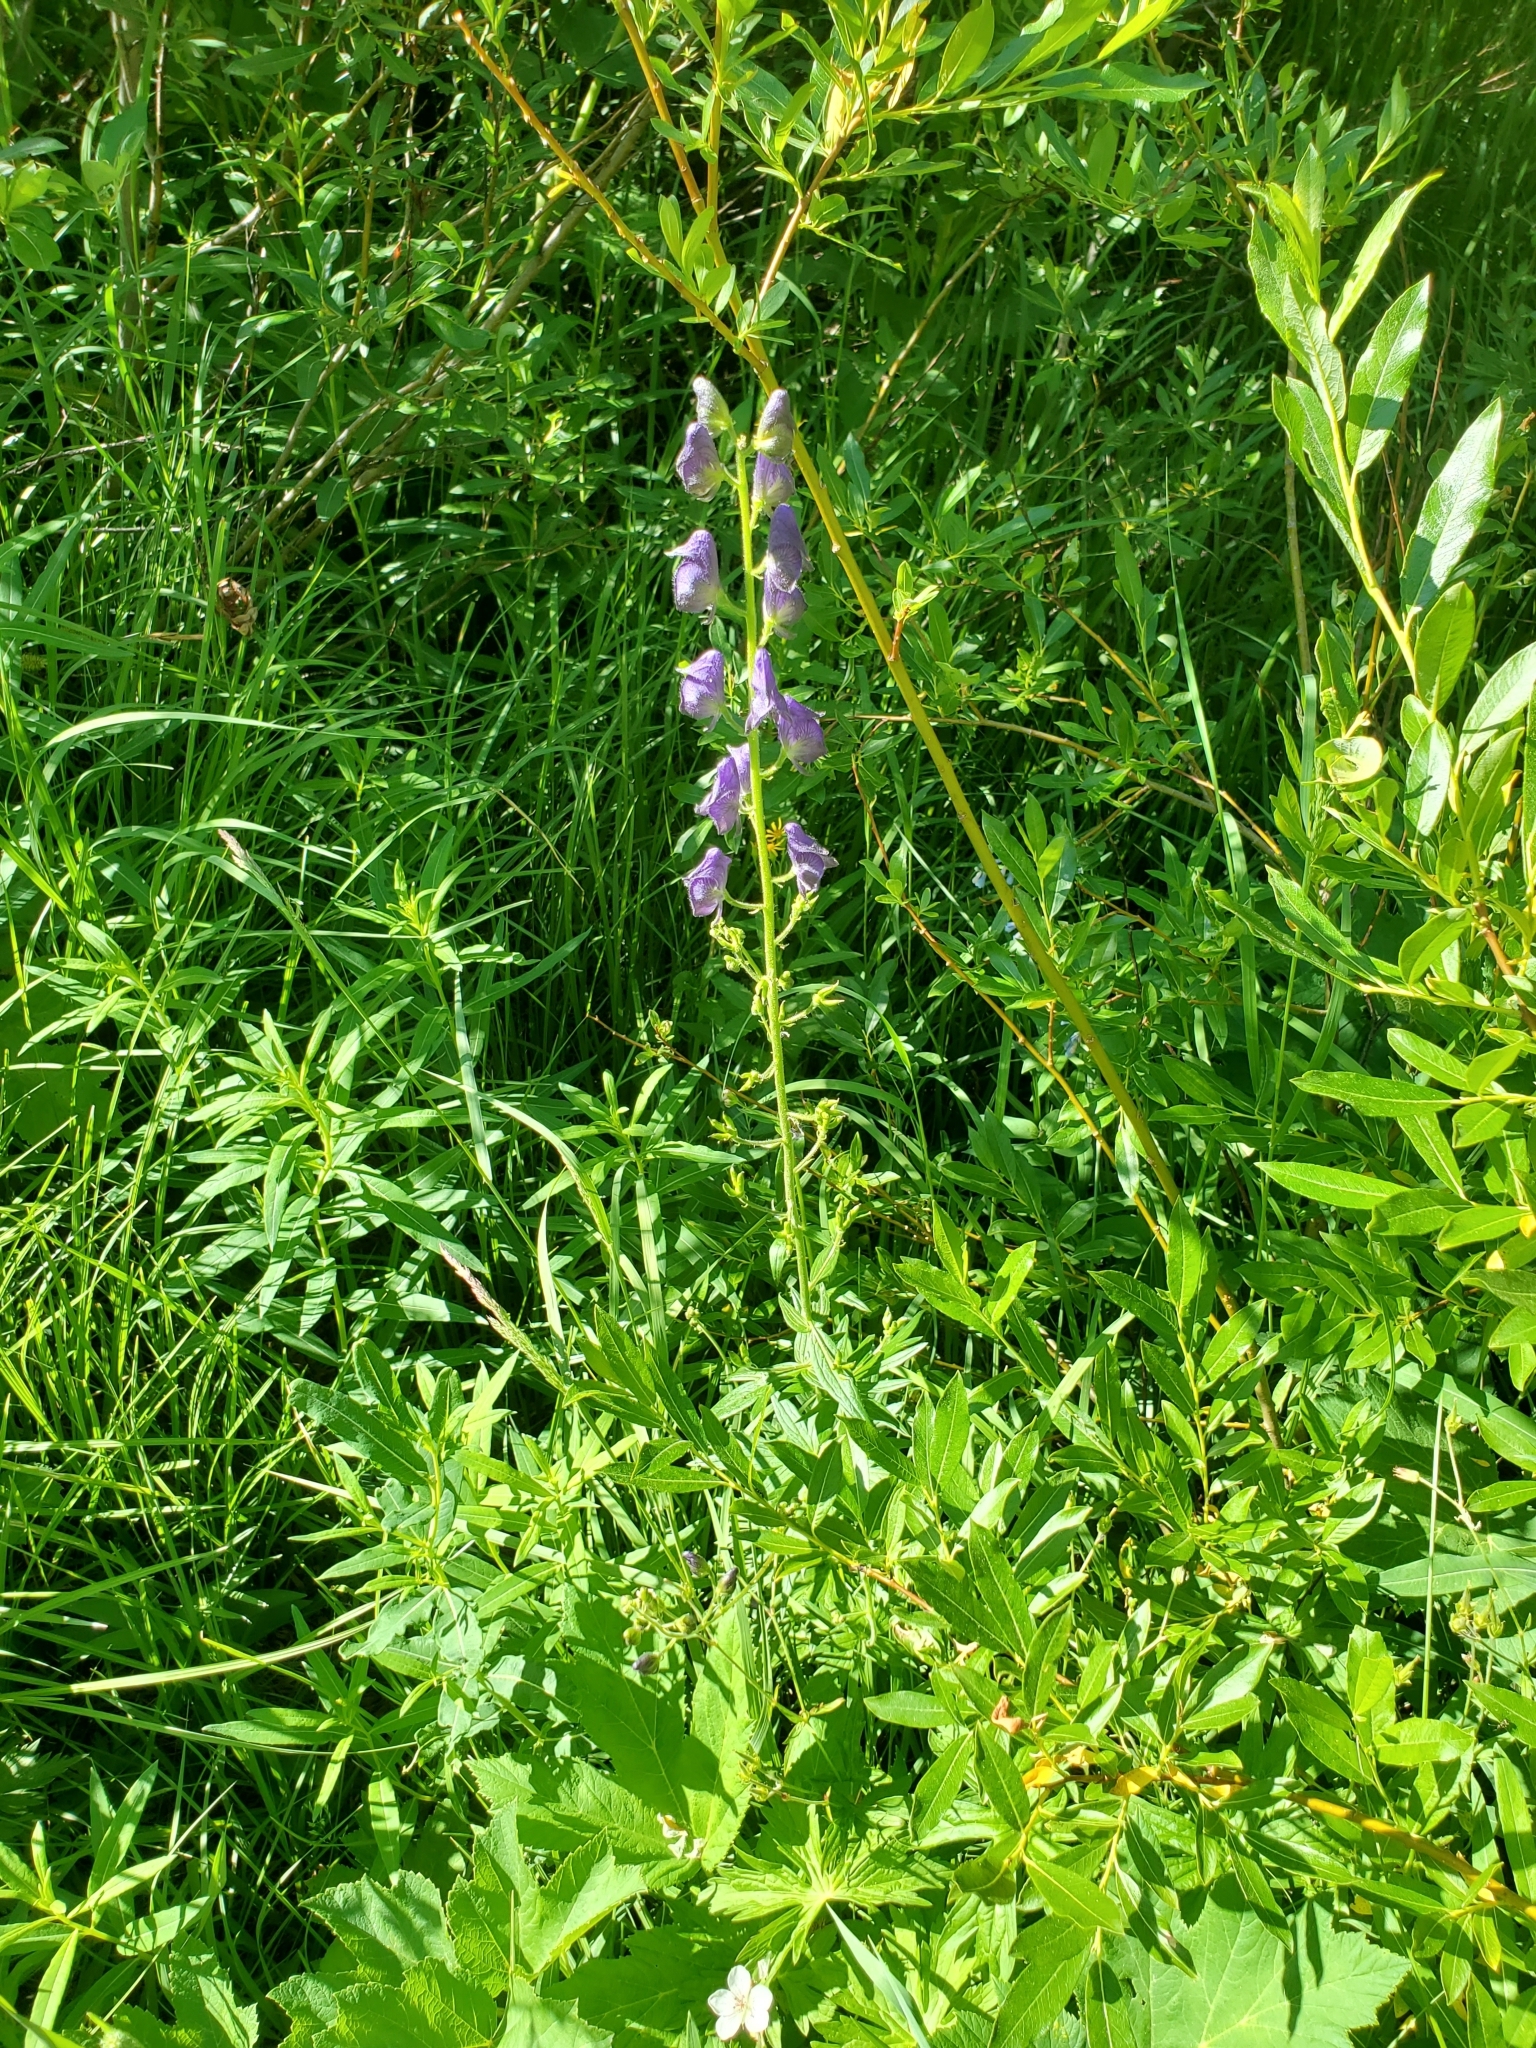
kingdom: Plantae
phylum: Tracheophyta
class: Magnoliopsida
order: Ranunculales
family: Ranunculaceae
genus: Aconitum
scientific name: Aconitum columbianum
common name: Columbia aconite
